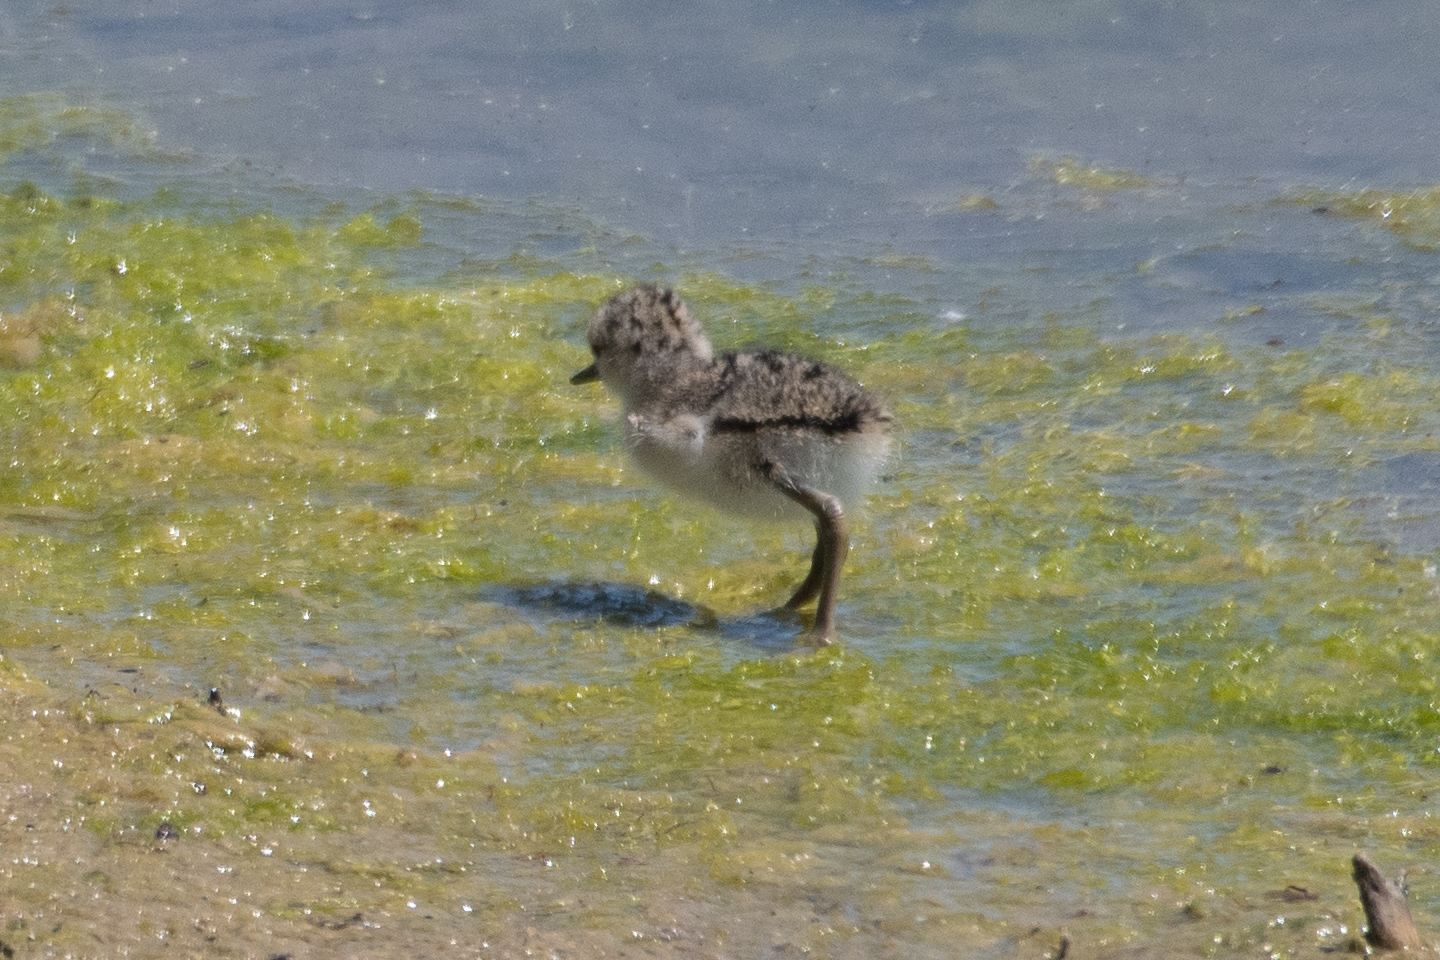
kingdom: Animalia
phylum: Chordata
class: Aves
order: Charadriiformes
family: Recurvirostridae
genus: Himantopus
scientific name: Himantopus mexicanus
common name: Black-necked stilt
